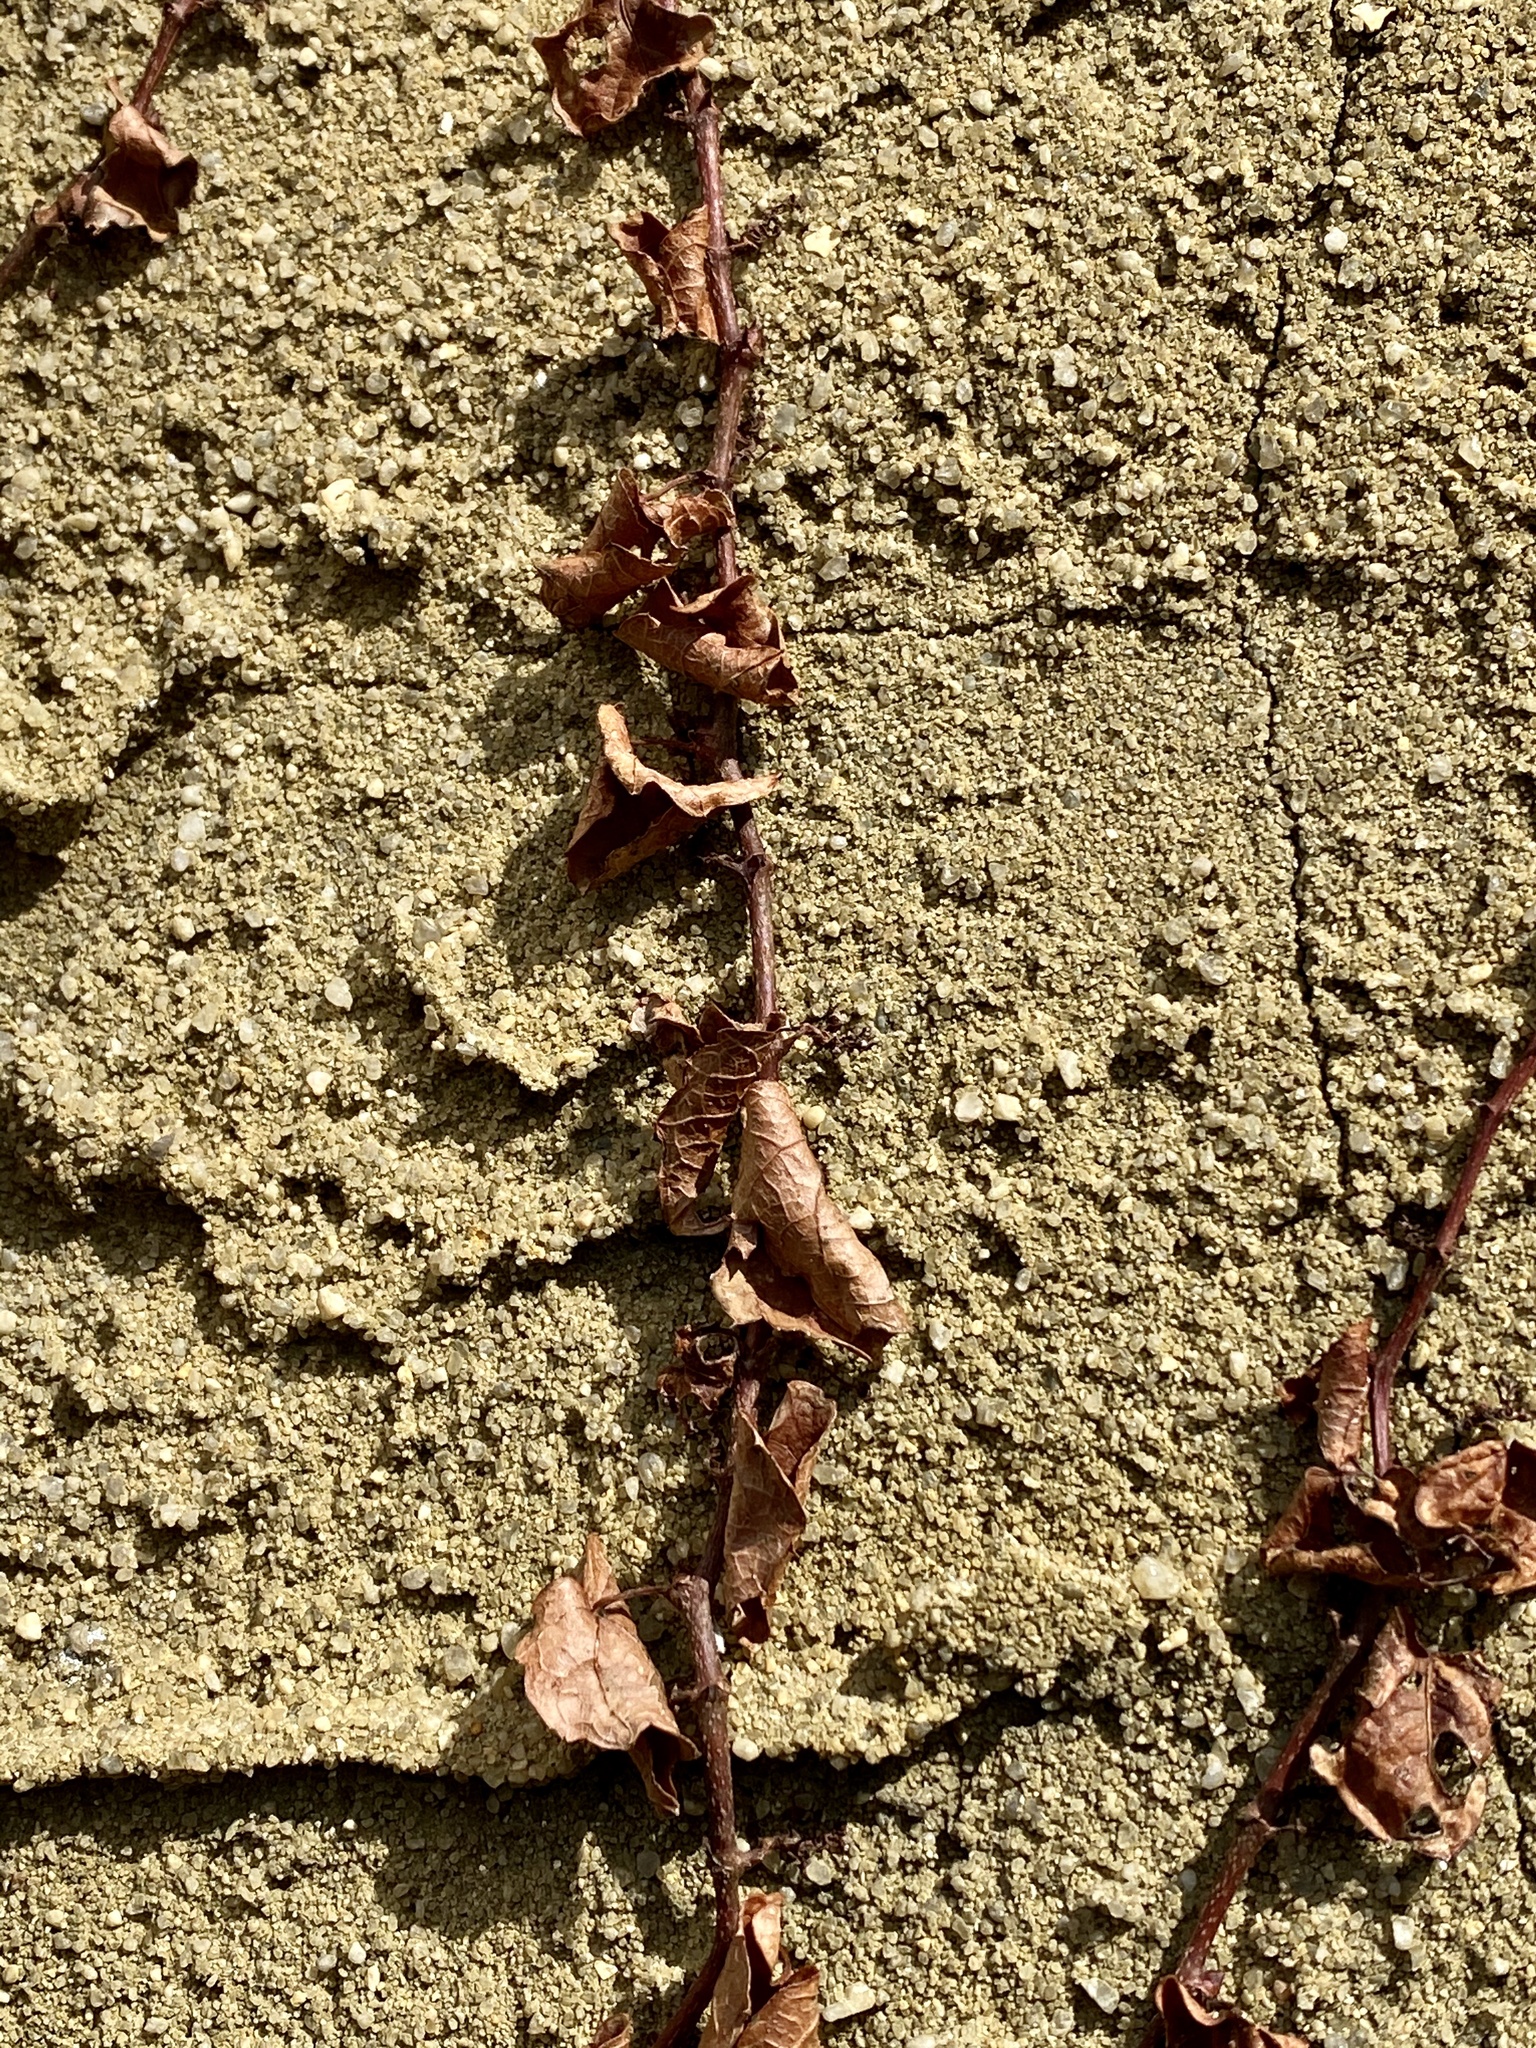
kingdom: Plantae
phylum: Tracheophyta
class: Magnoliopsida
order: Vitales
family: Vitaceae
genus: Parthenocissus
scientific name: Parthenocissus tricuspidata
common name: Boston ivy
